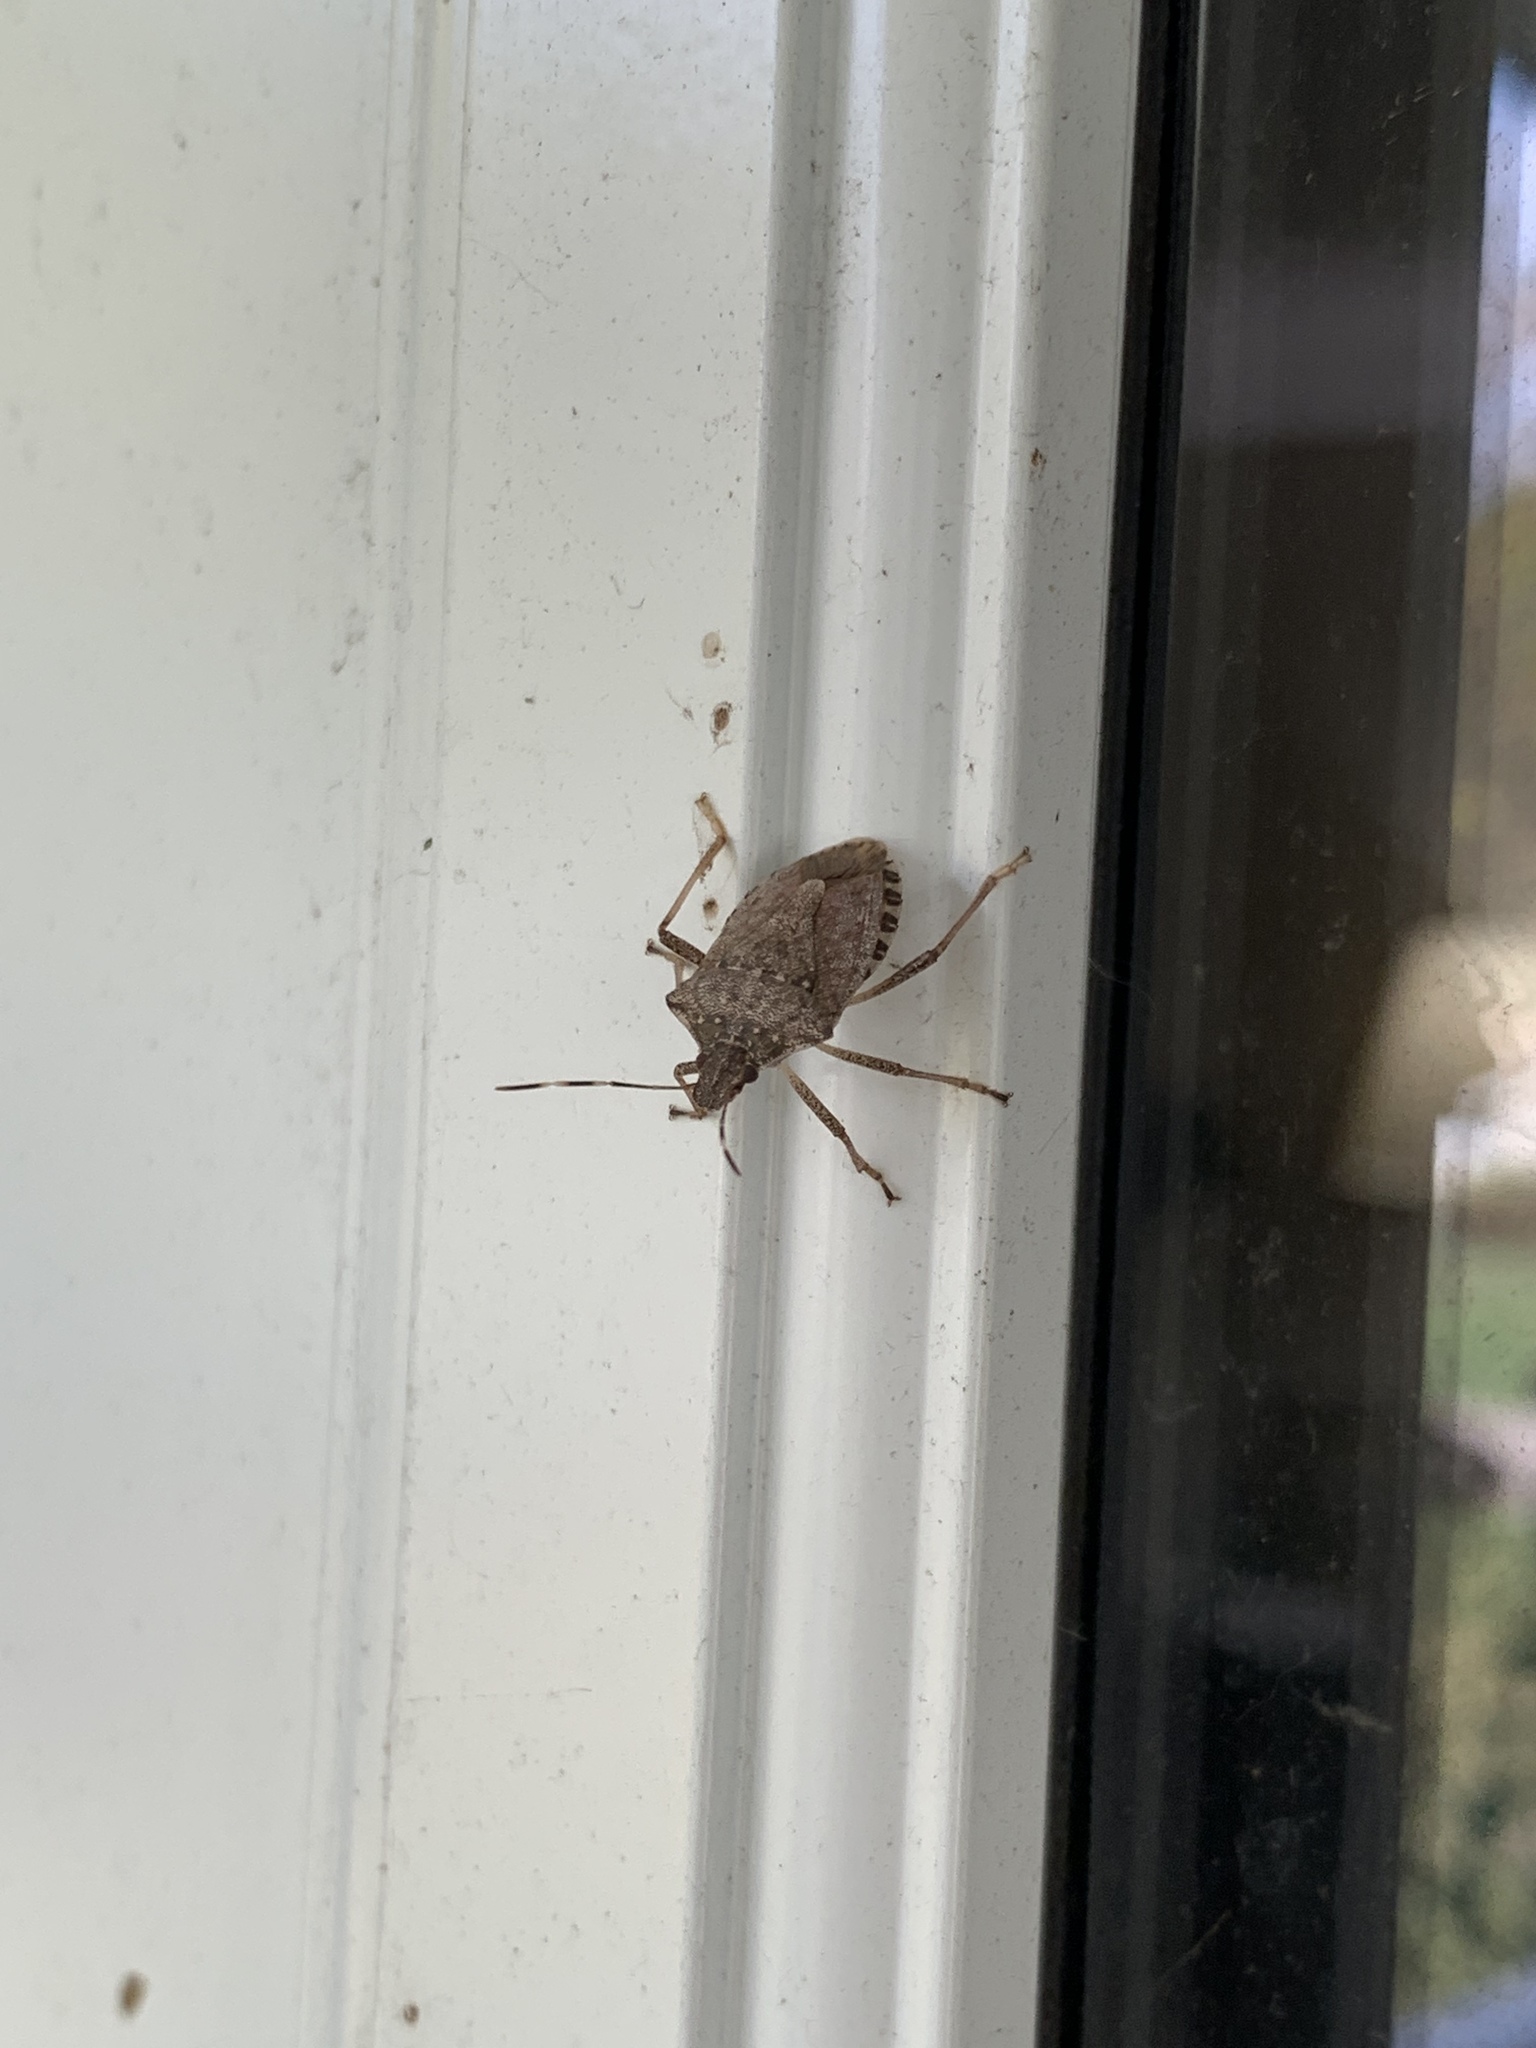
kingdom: Animalia
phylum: Arthropoda
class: Insecta
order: Hemiptera
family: Pentatomidae
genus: Halyomorpha
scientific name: Halyomorpha halys
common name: Brown marmorated stink bug
